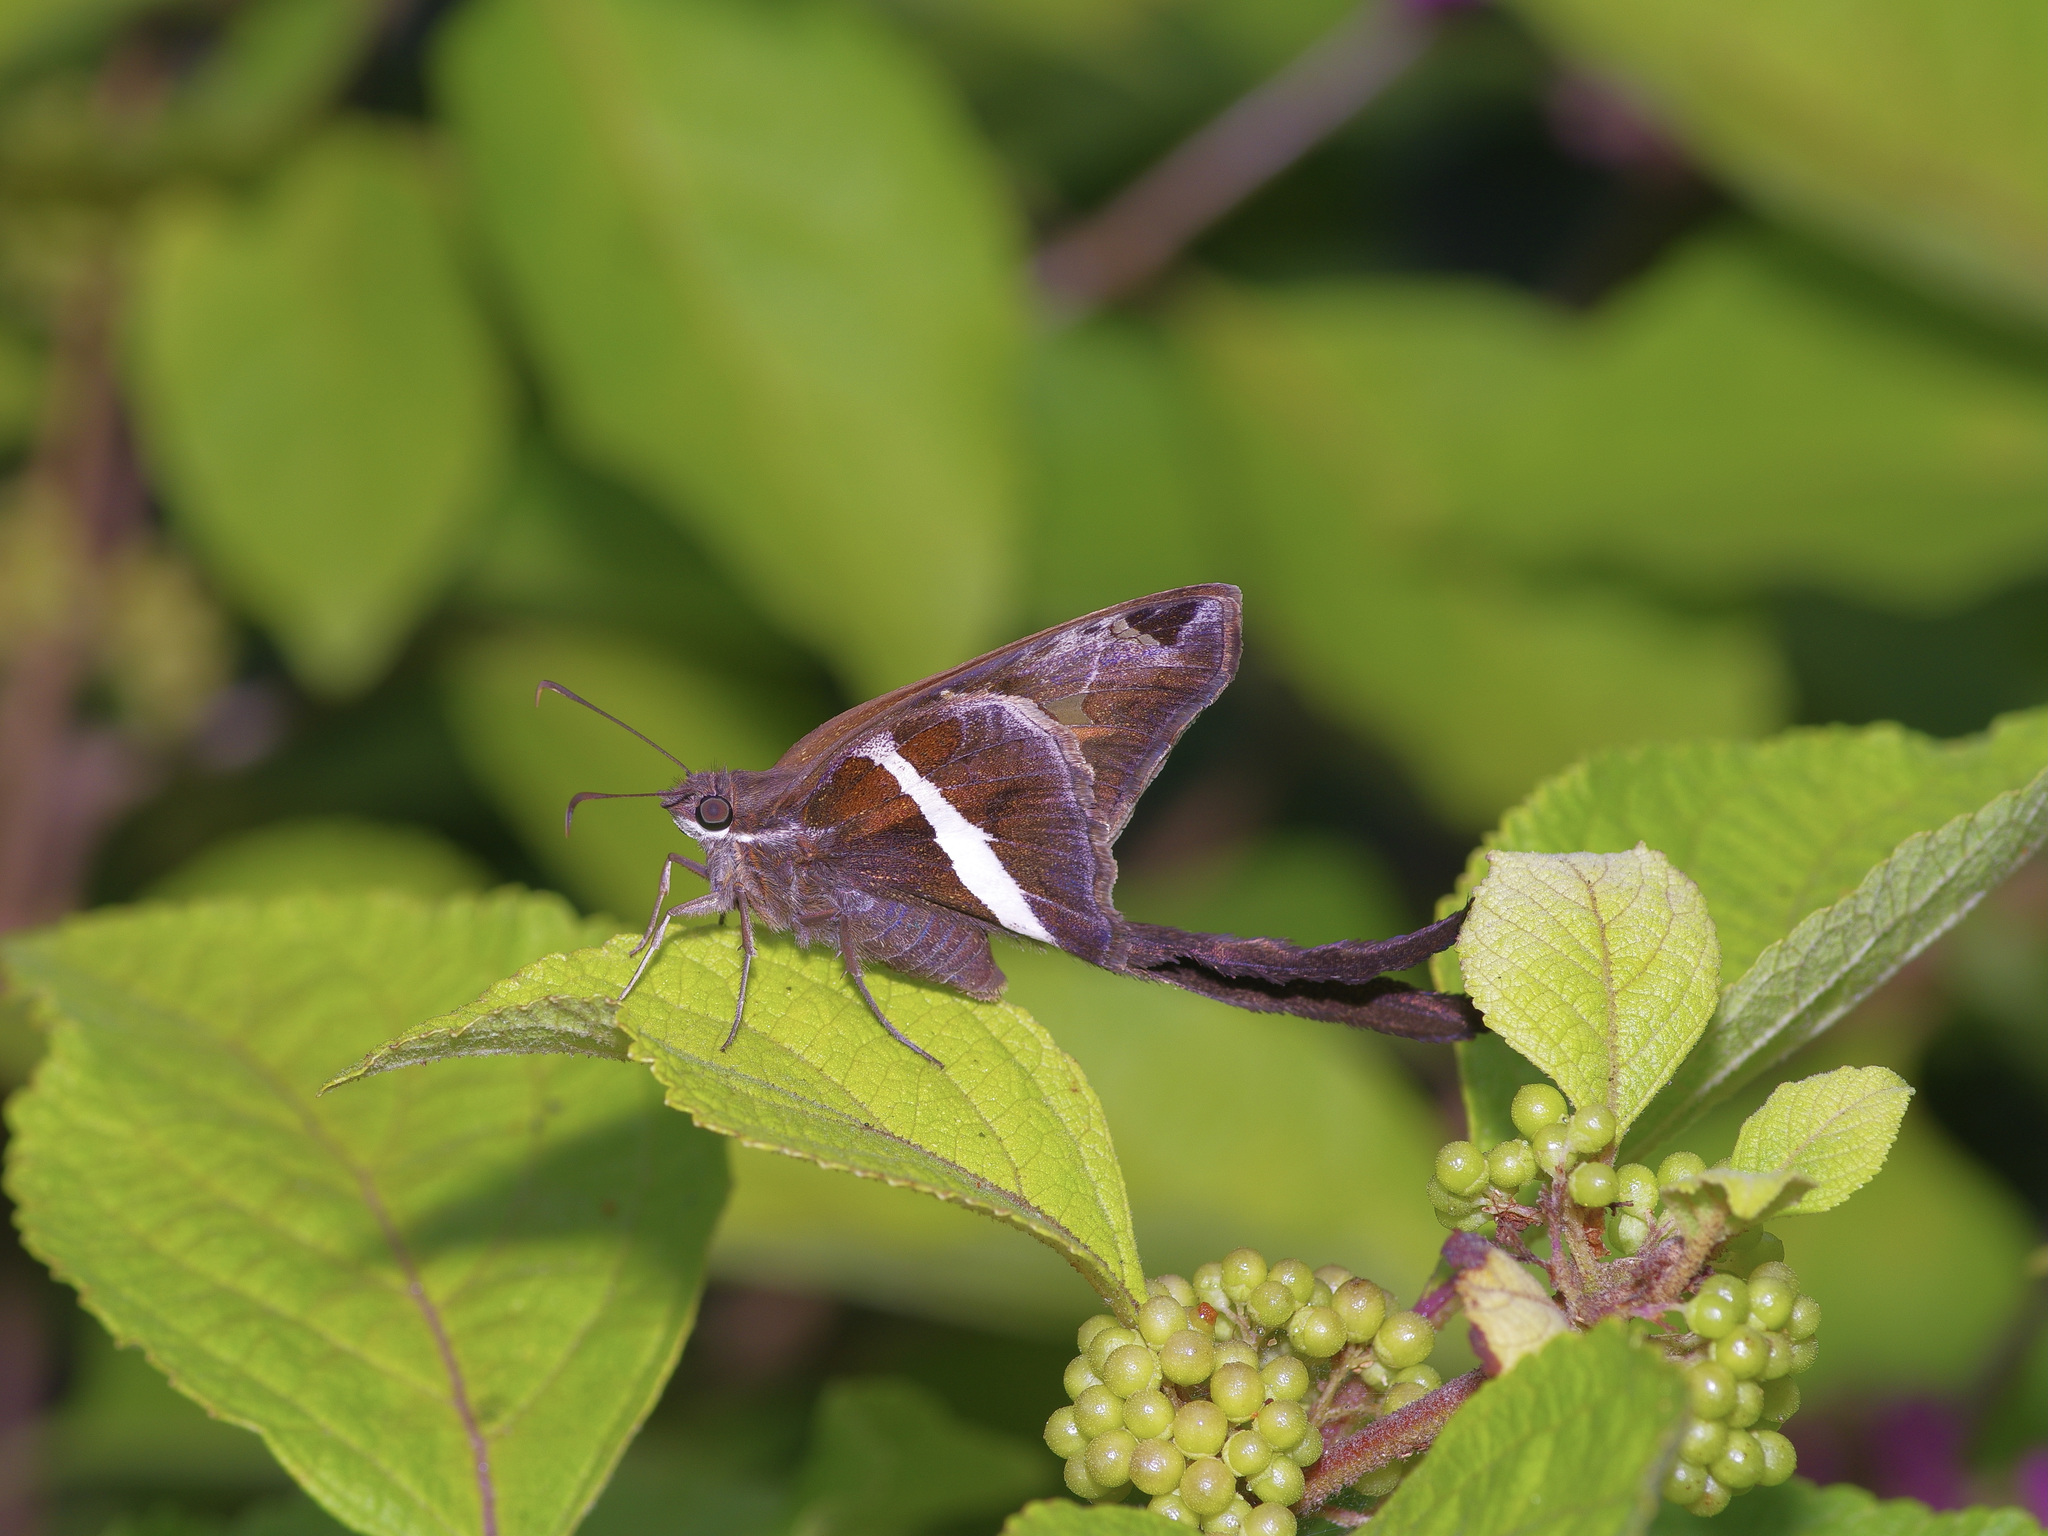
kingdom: Animalia
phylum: Arthropoda
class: Insecta
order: Lepidoptera
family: Hesperiidae
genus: Chioides
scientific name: Chioides catillus
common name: Silverbanded skipper
